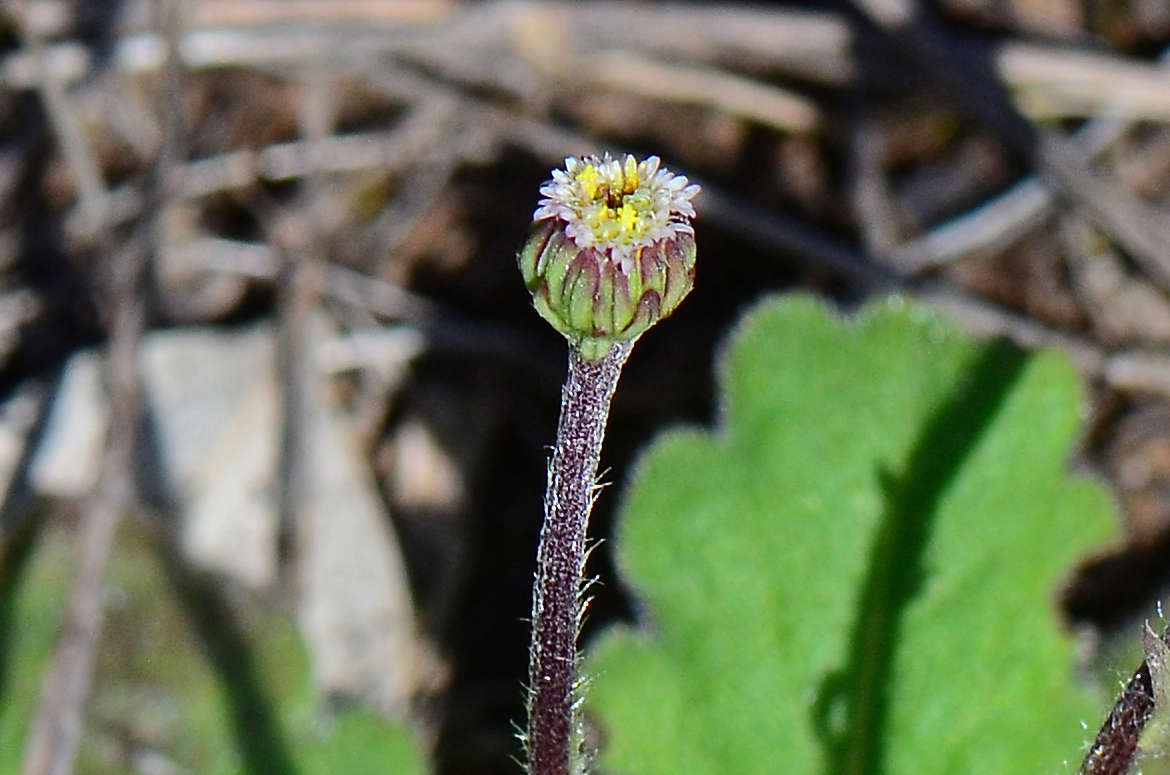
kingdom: Plantae
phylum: Tracheophyta
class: Magnoliopsida
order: Asterales
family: Asteraceae
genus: Lagenophora
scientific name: Lagenophora huegelii
